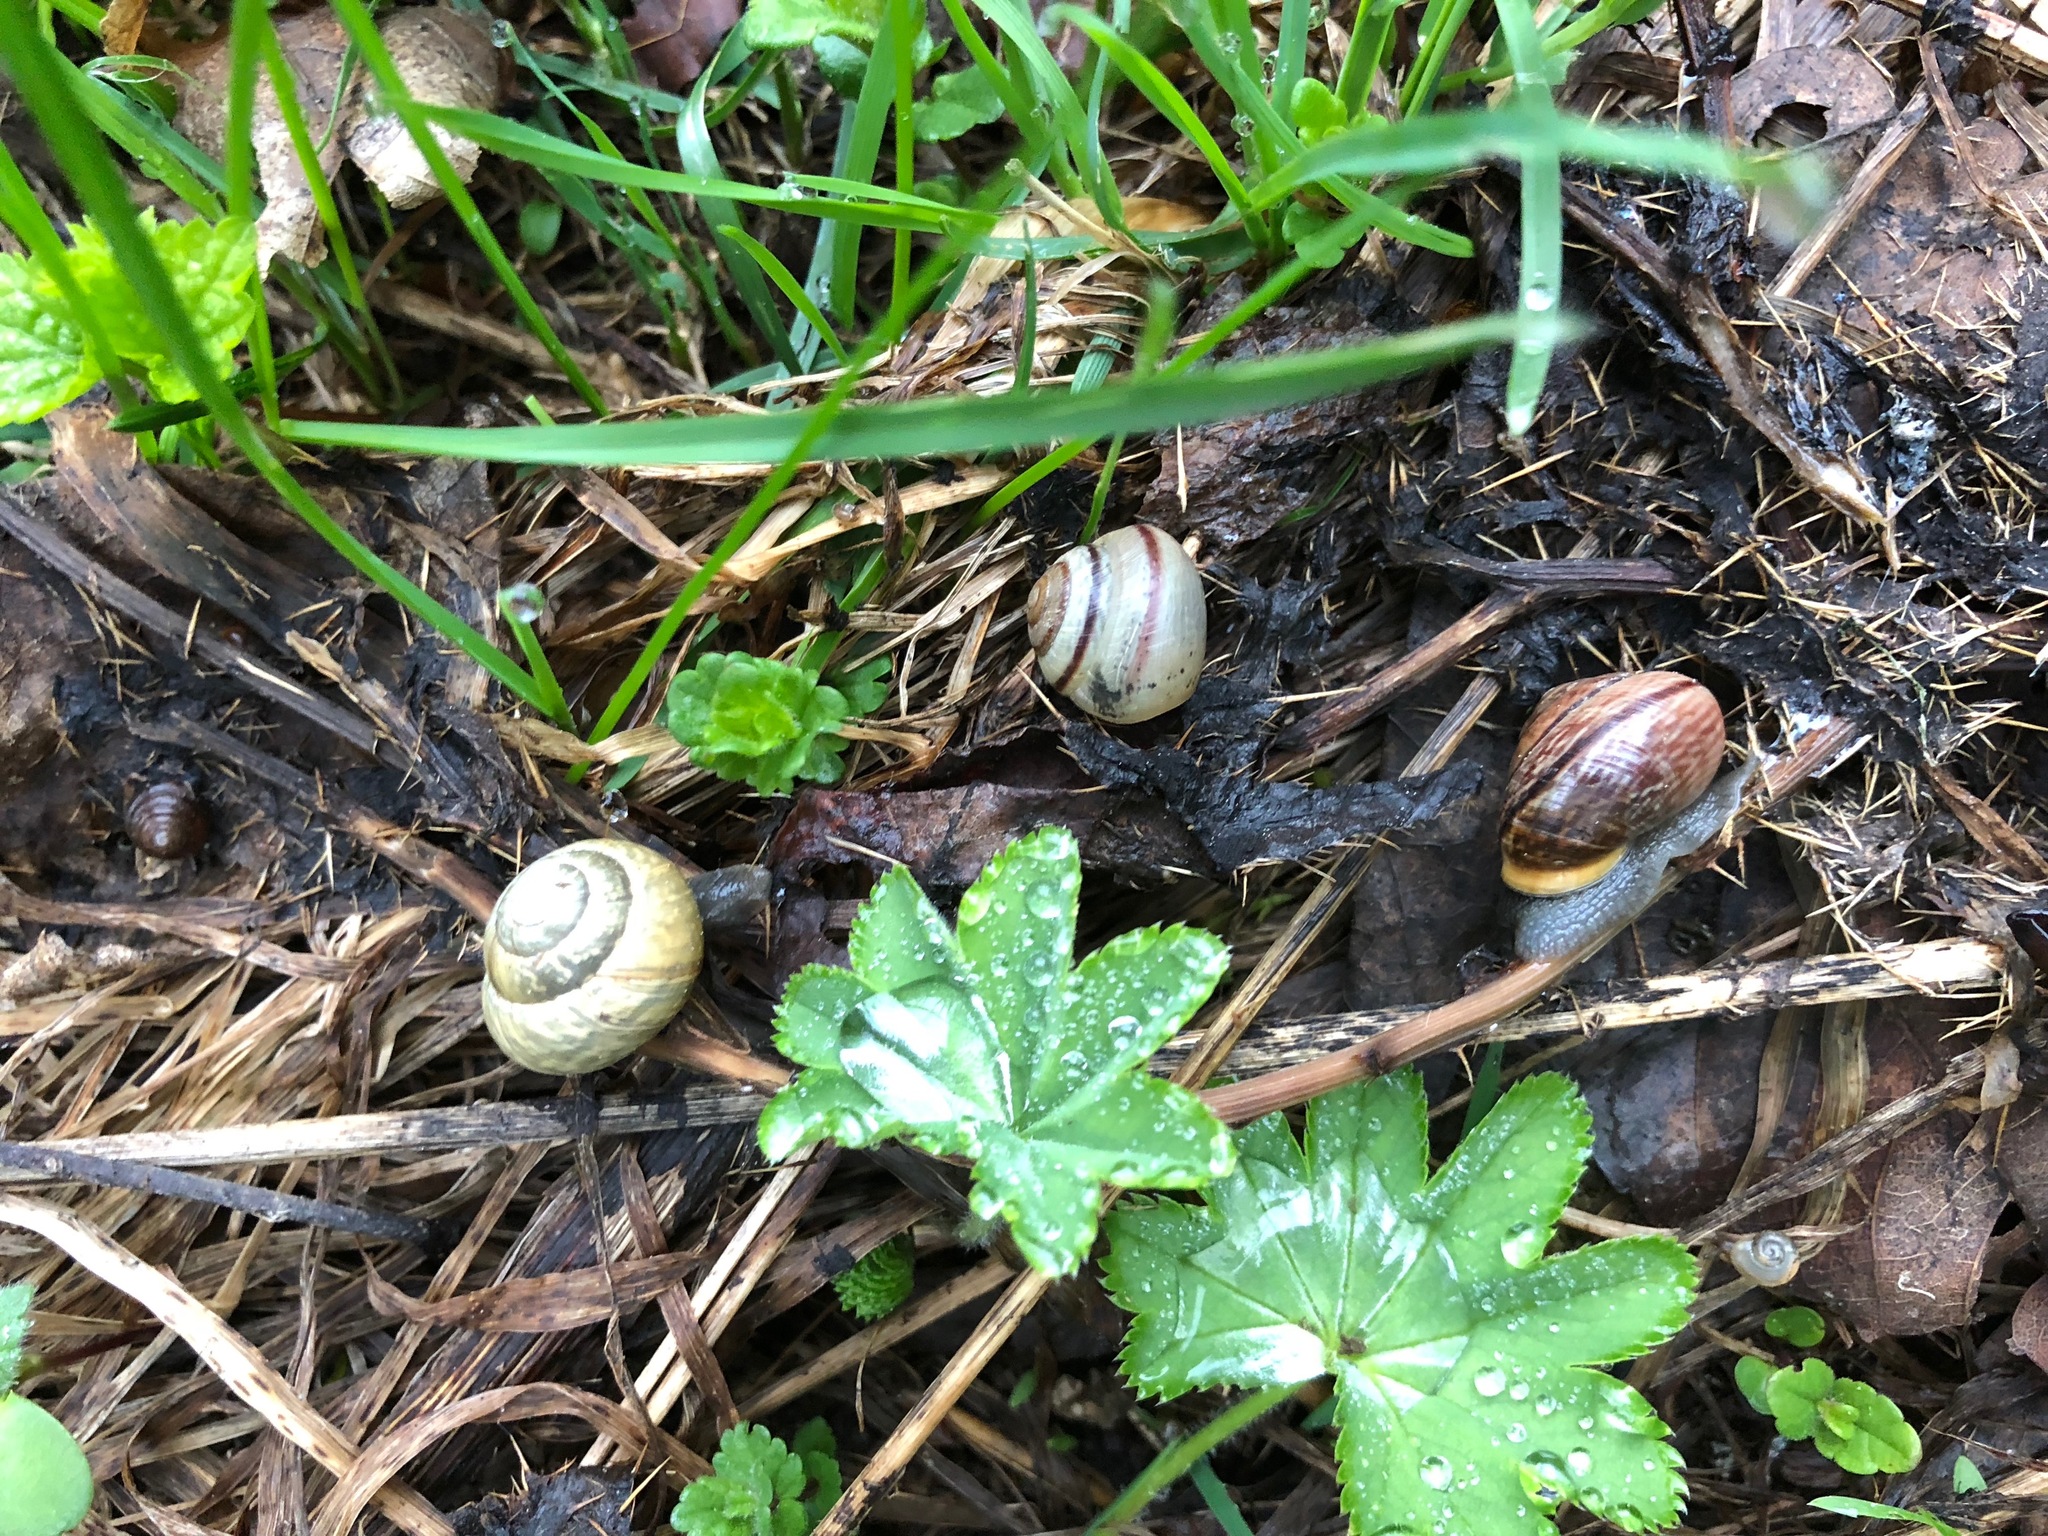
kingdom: Animalia
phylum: Mollusca
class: Gastropoda
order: Stylommatophora
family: Helicidae
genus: Arianta
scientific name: Arianta arbustorum
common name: Copse snail
